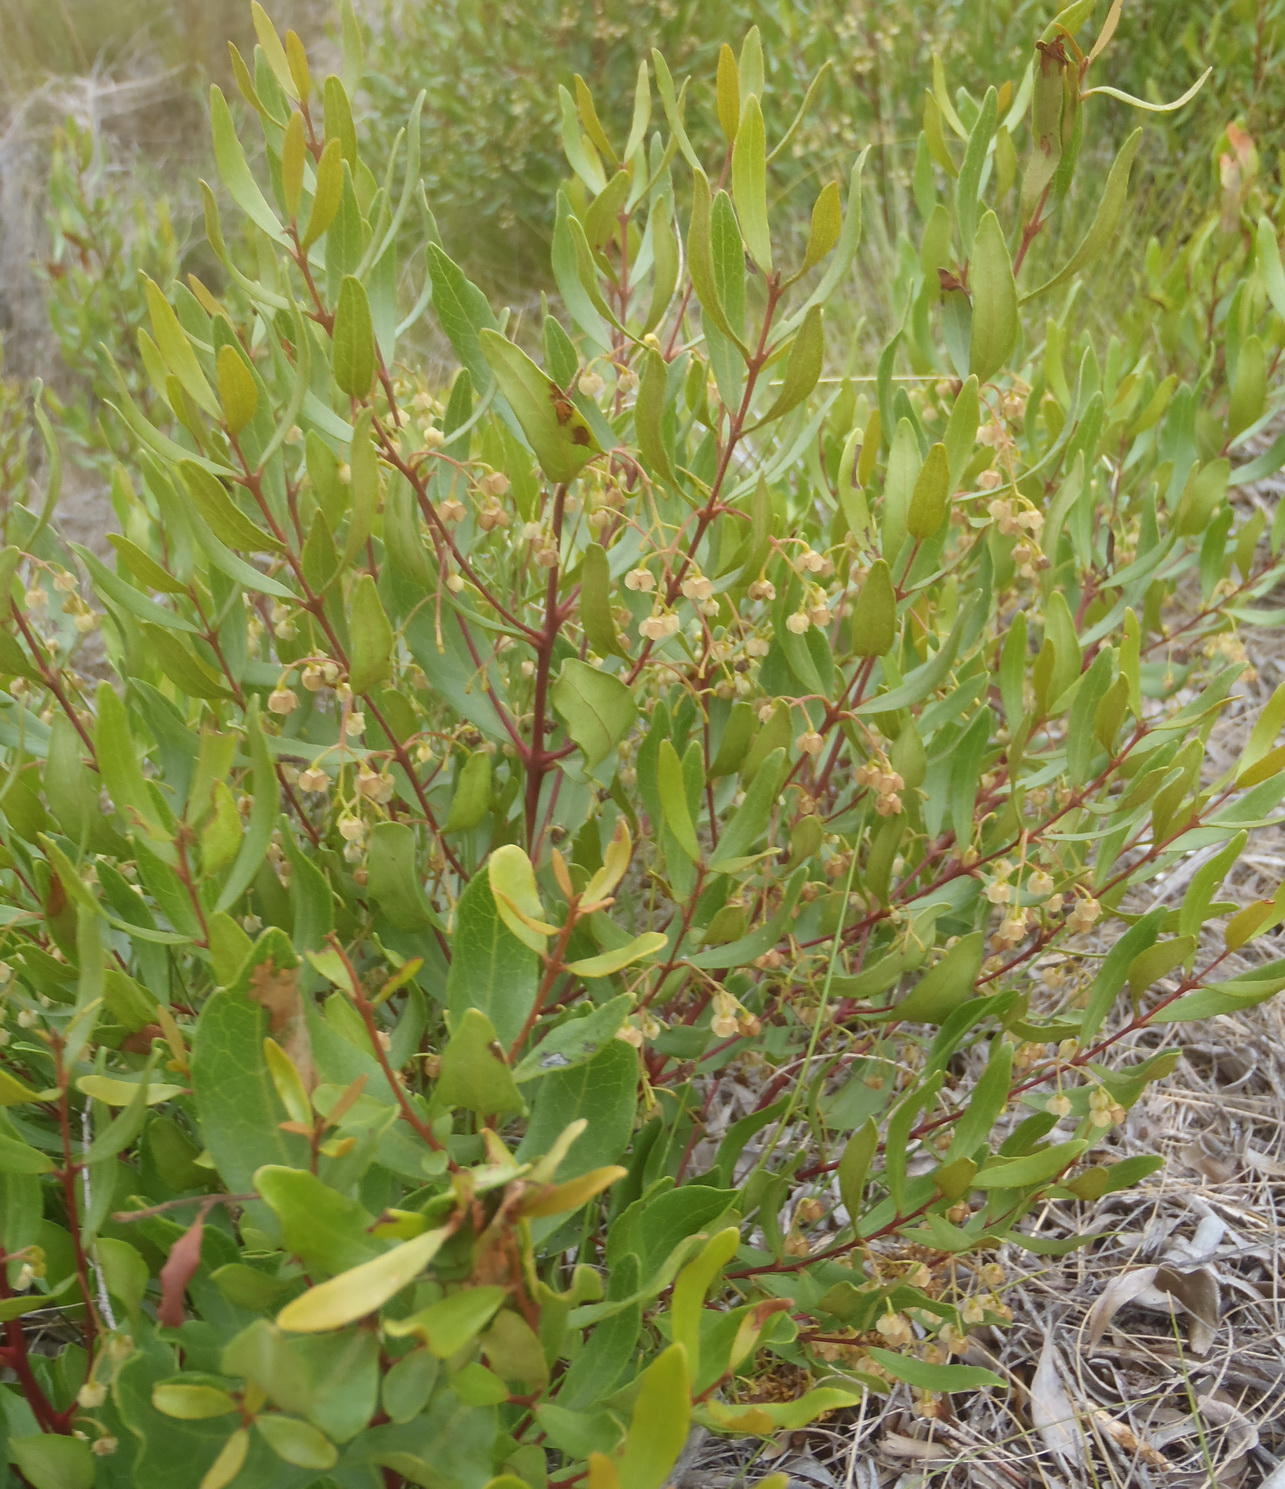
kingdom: Plantae
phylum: Tracheophyta
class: Magnoliopsida
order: Ericales
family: Ebenaceae
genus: Euclea
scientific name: Euclea crispa
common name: Blue guarri
